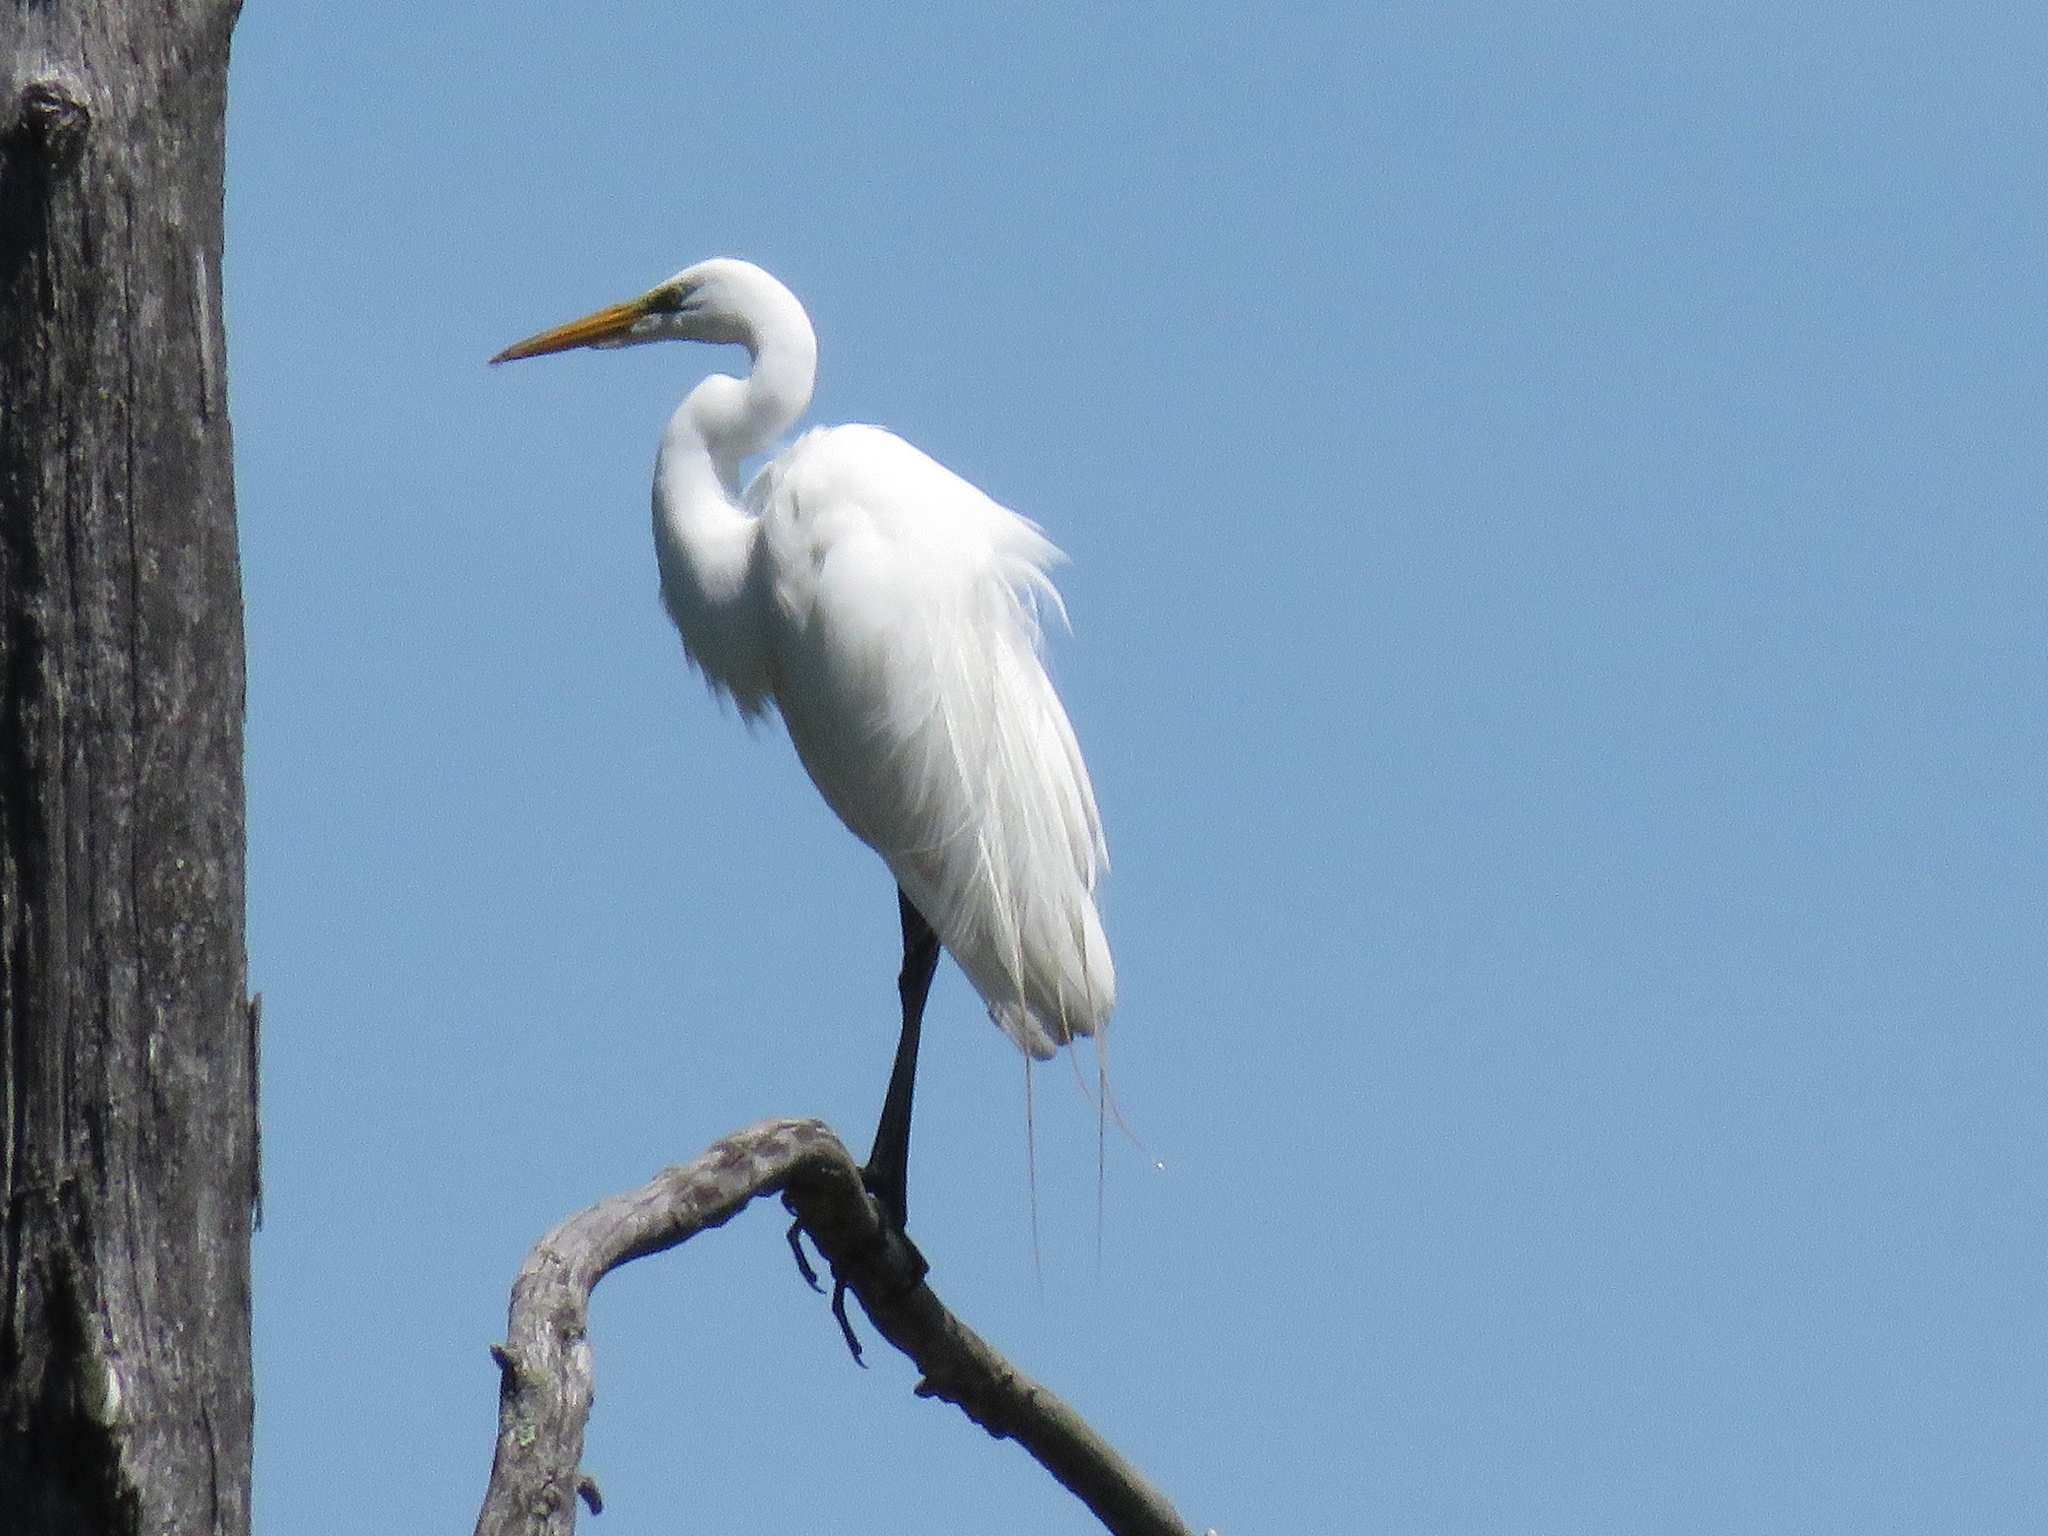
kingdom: Animalia
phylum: Chordata
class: Aves
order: Pelecaniformes
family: Ardeidae
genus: Ardea
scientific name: Ardea alba
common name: Great egret
